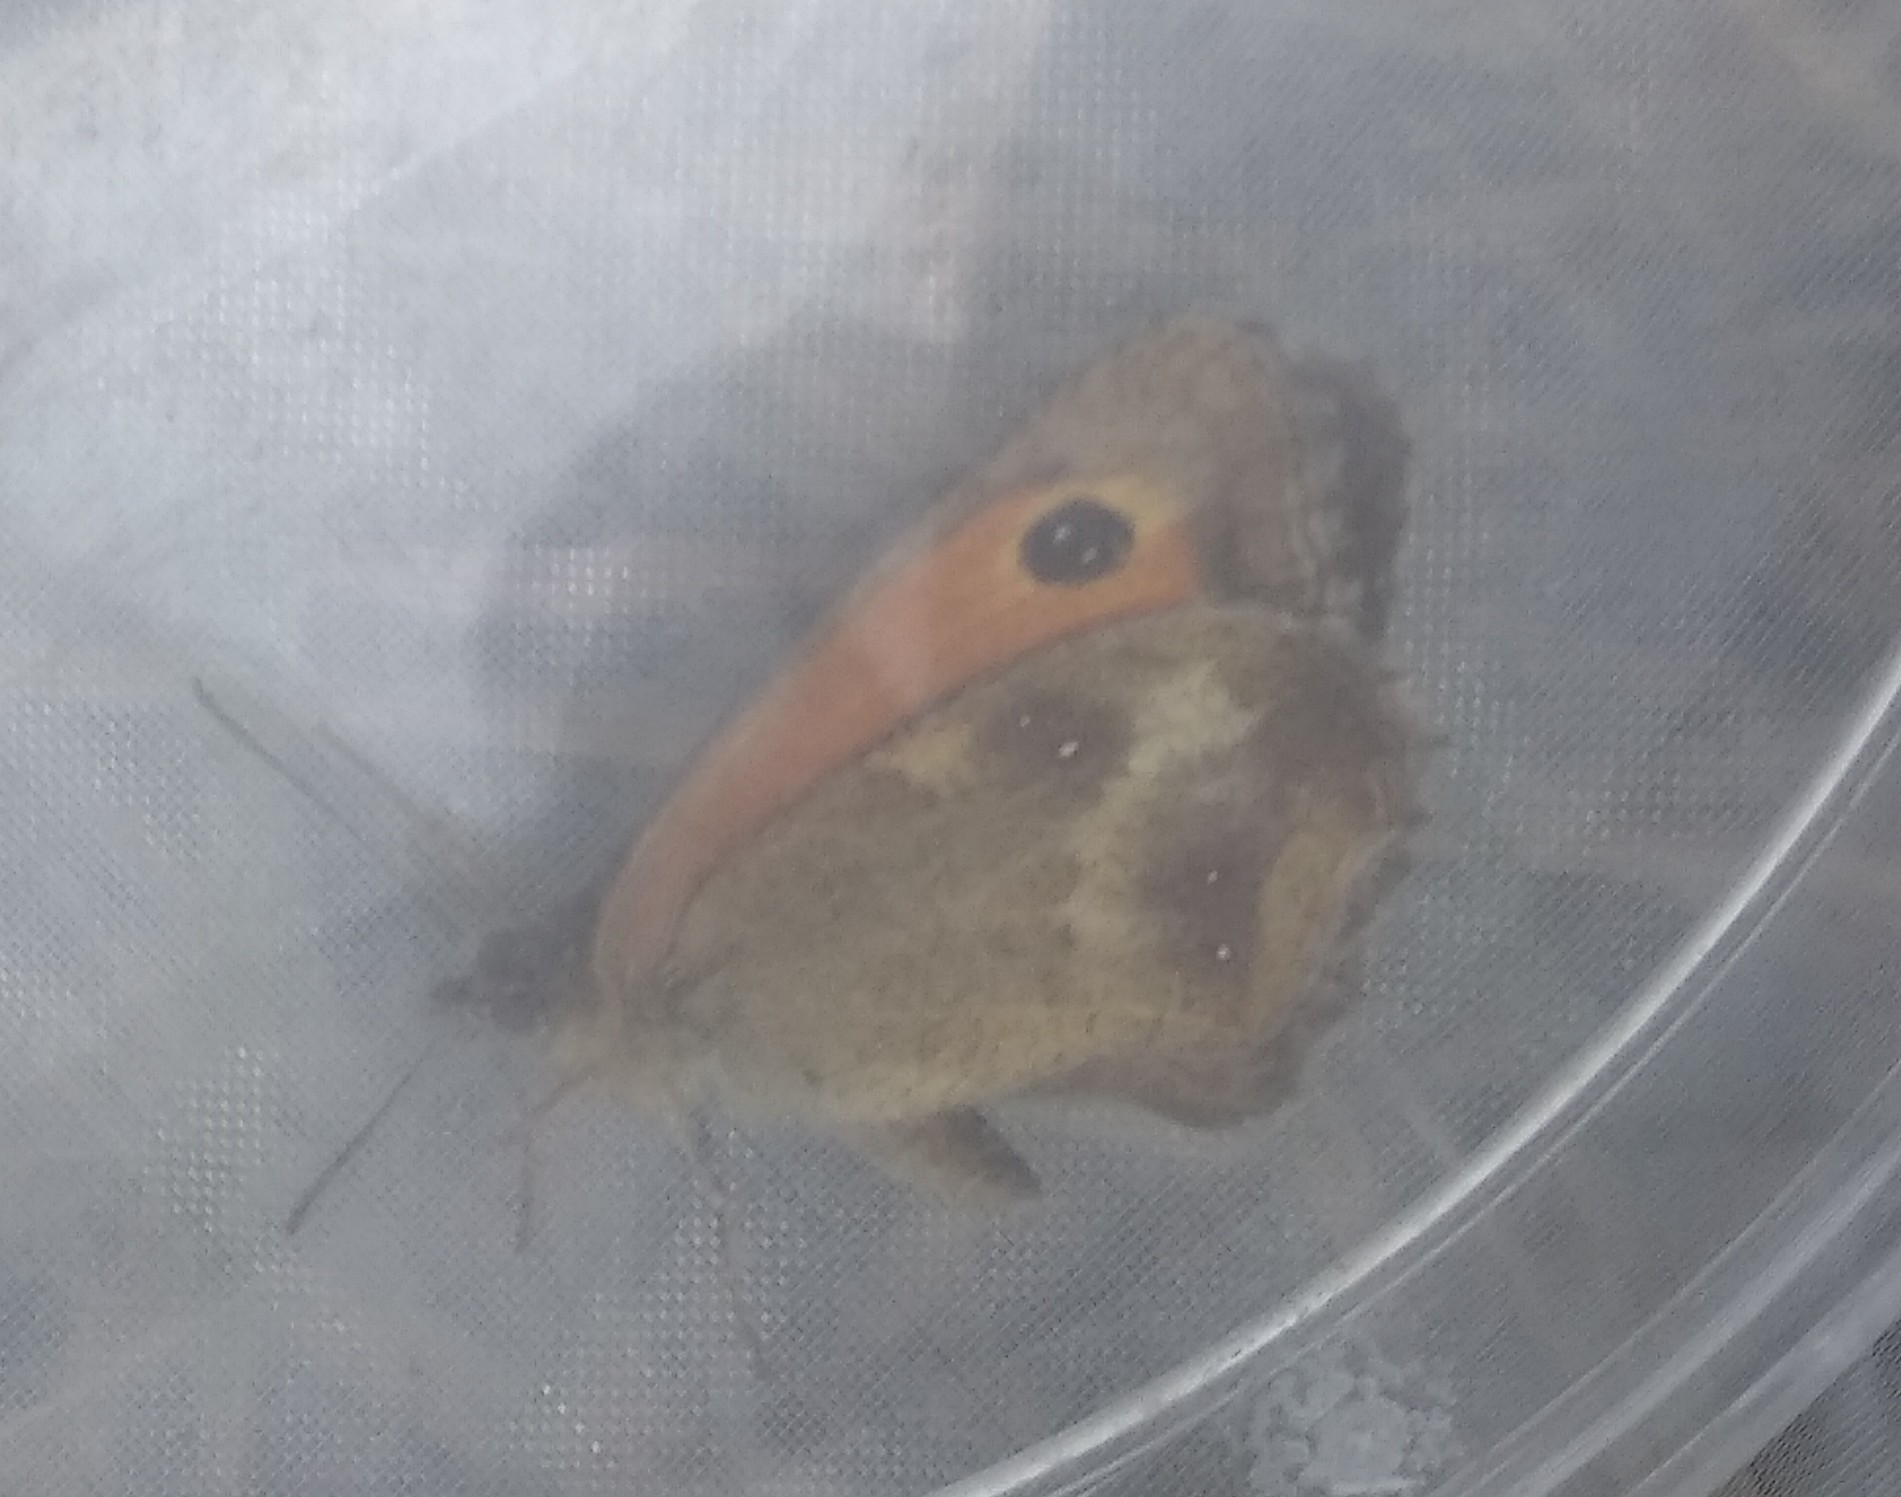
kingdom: Animalia
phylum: Arthropoda
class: Insecta
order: Lepidoptera
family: Nymphalidae
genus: Pyronia
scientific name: Pyronia tithonus
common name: Gatekeeper
